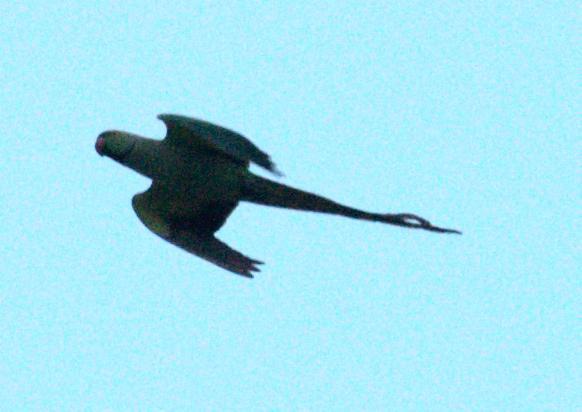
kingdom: Animalia
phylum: Chordata
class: Aves
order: Psittaciformes
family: Psittacidae
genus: Psittacula
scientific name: Psittacula krameri
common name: Rose-ringed parakeet
